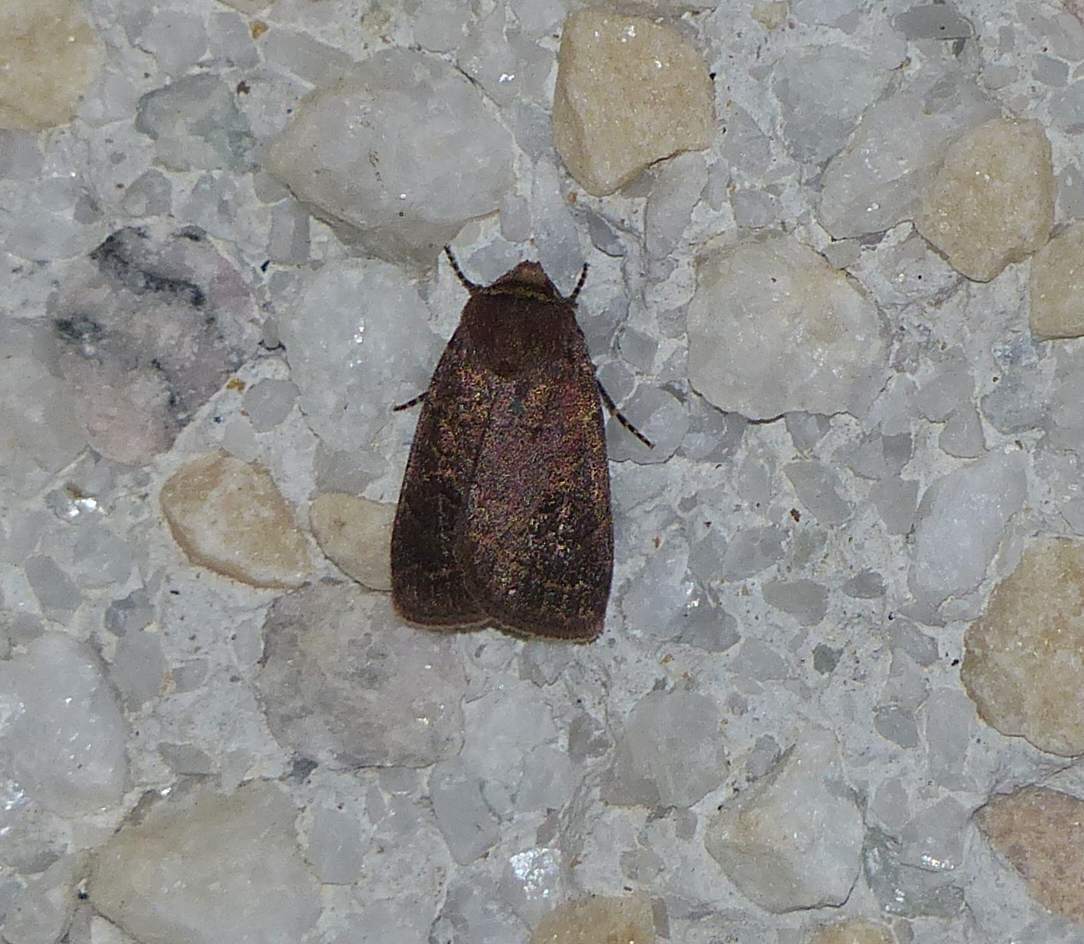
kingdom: Animalia
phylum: Arthropoda
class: Insecta
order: Lepidoptera
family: Noctuidae
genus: Orthodes
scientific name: Orthodes cynica
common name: Cynical quaker
